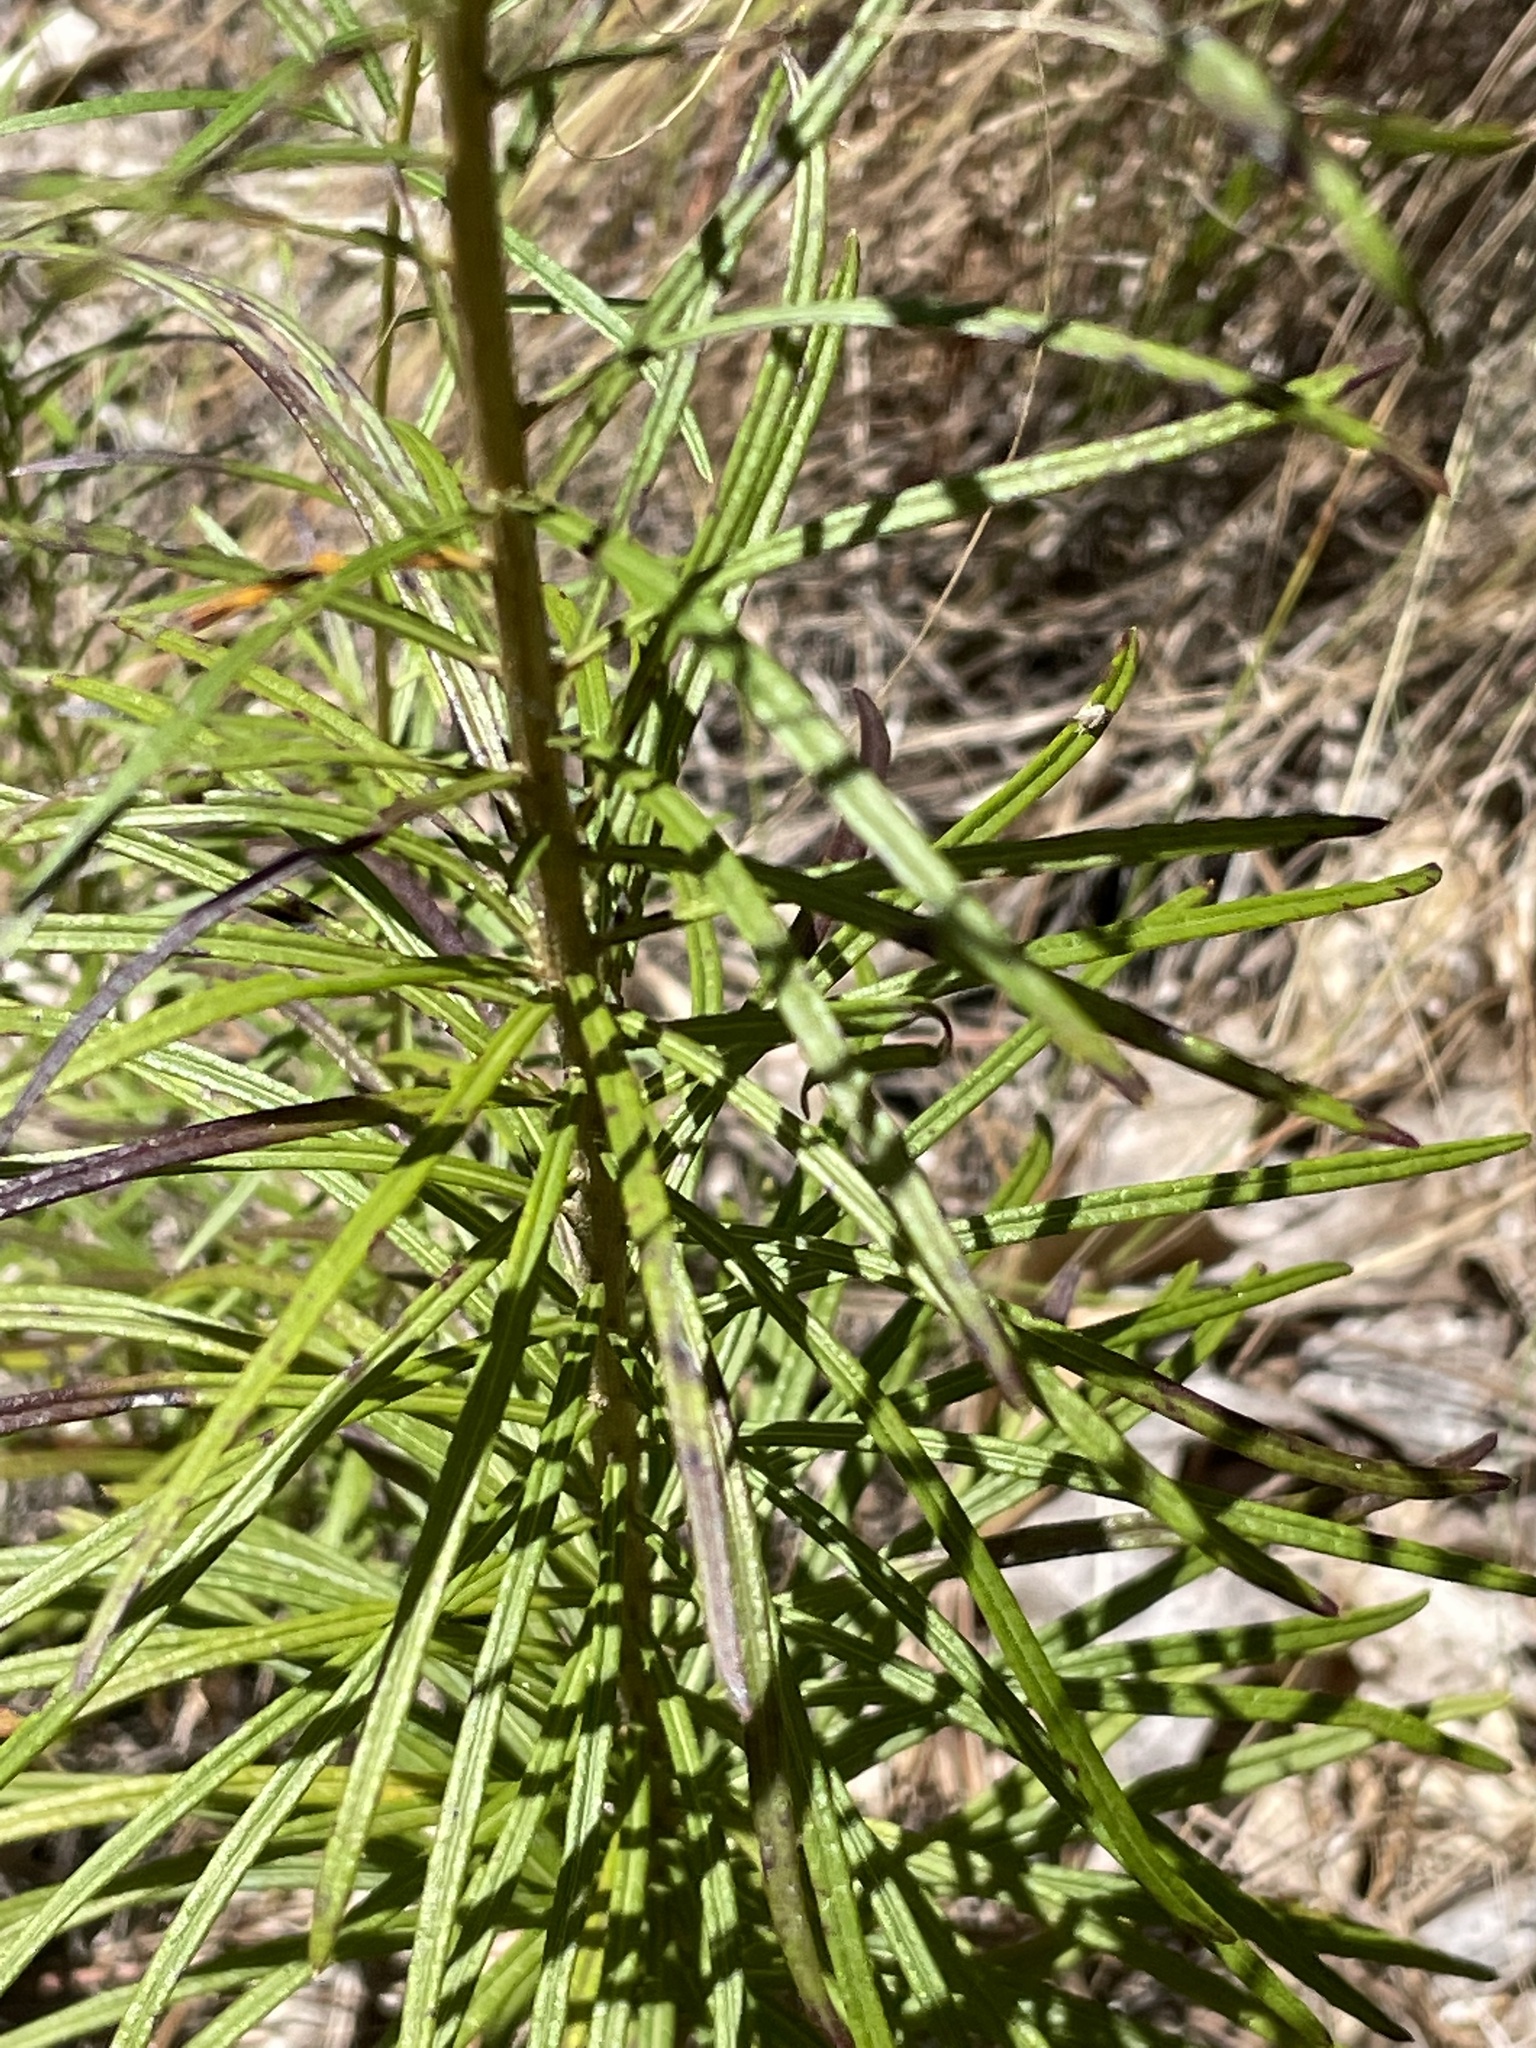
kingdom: Plantae
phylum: Tracheophyta
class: Magnoliopsida
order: Asterales
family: Asteraceae
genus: Vernonia
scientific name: Vernonia angustifolia
